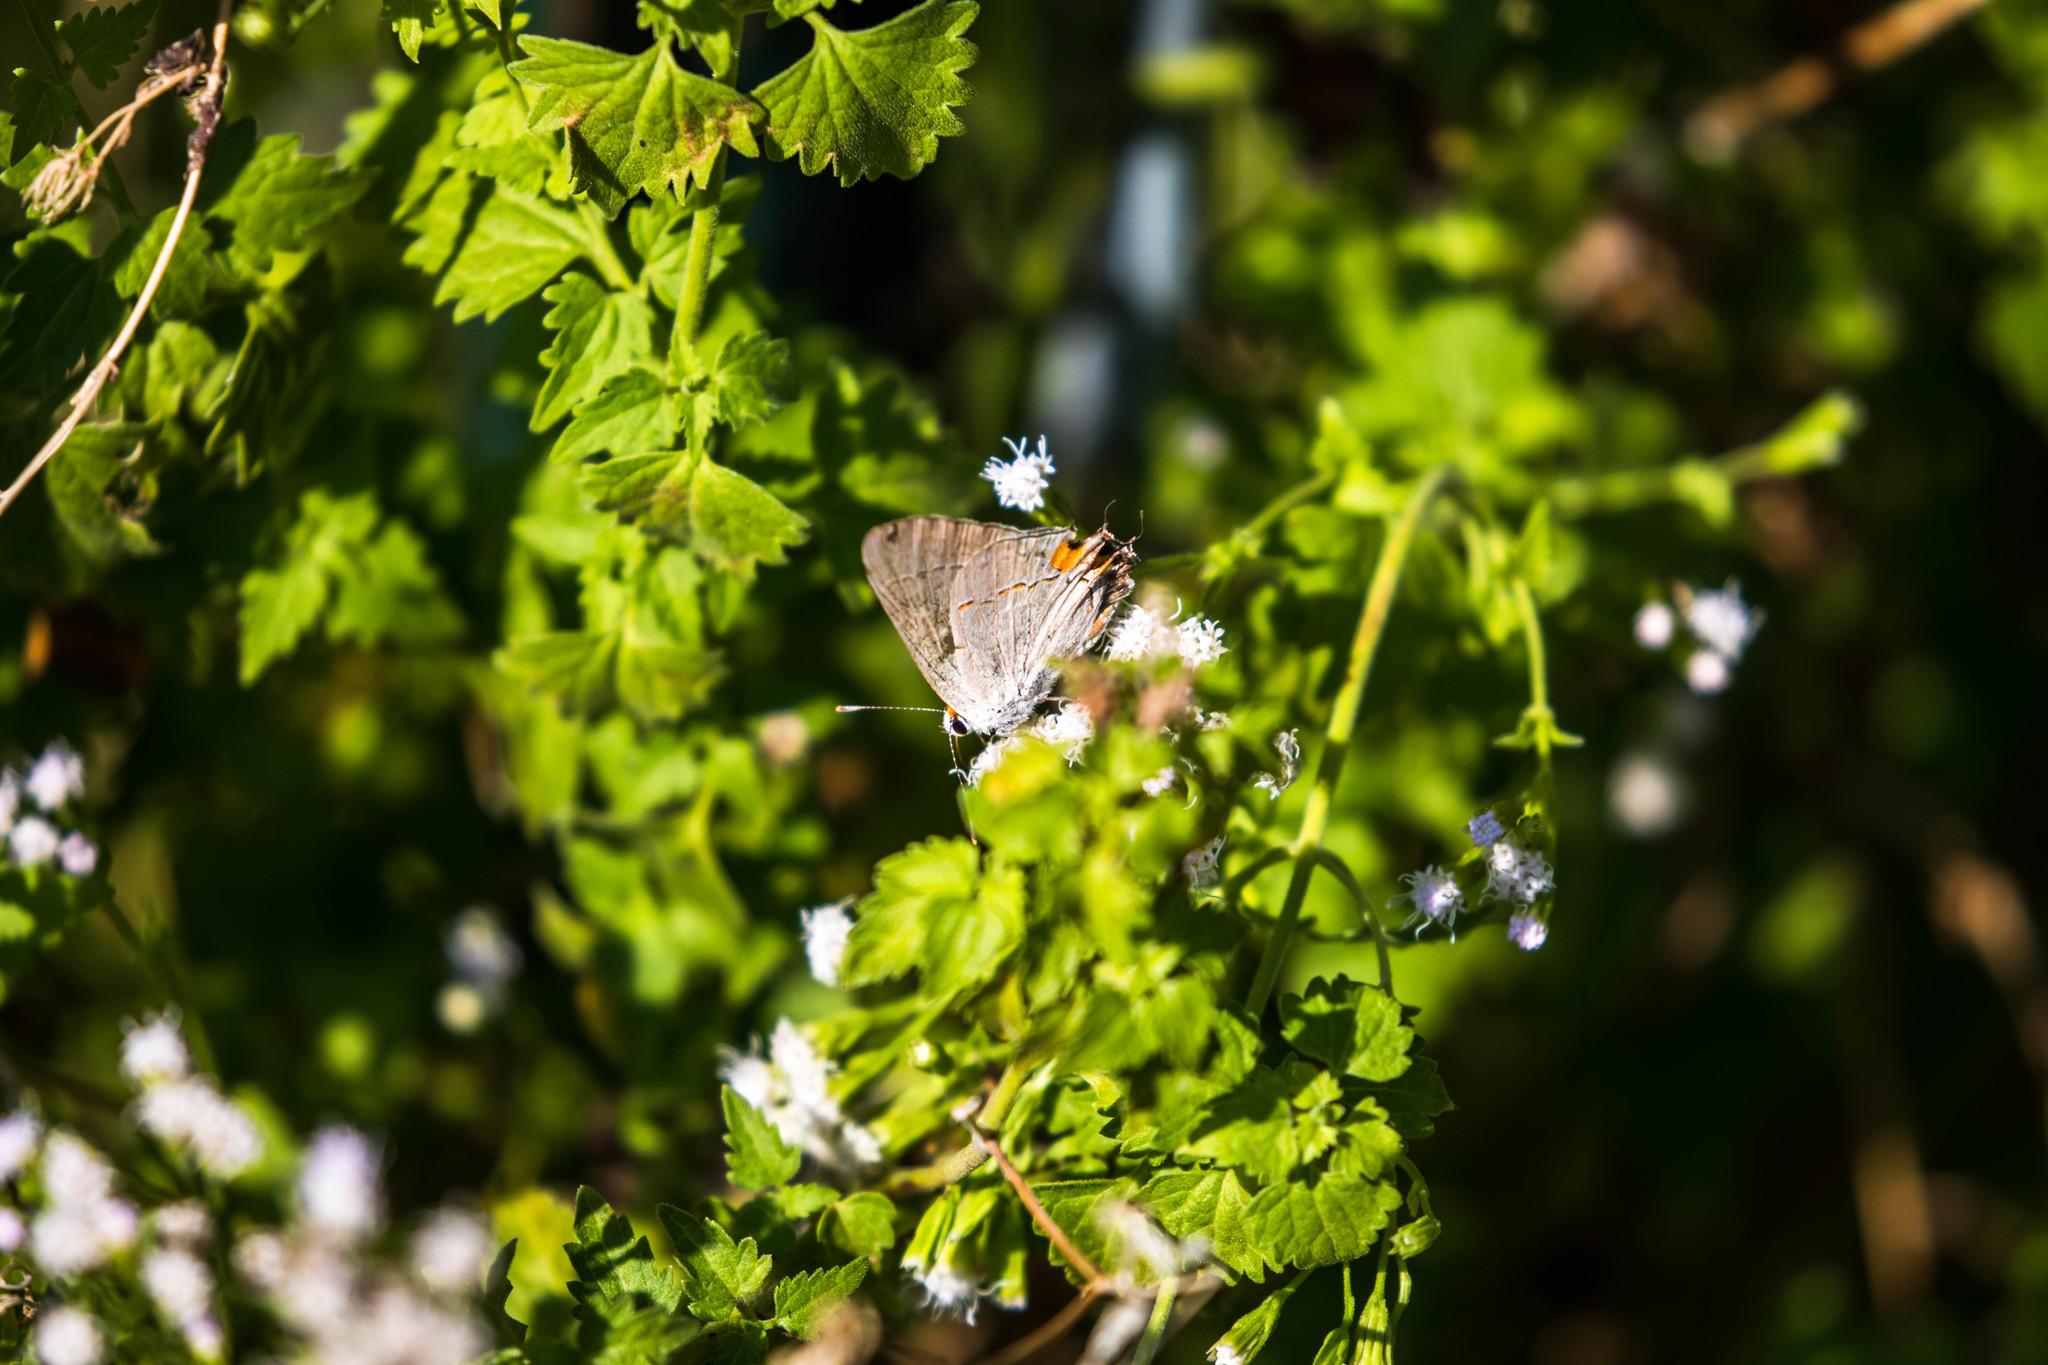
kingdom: Animalia
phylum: Arthropoda
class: Insecta
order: Lepidoptera
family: Lycaenidae
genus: Strymon
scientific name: Strymon melinus
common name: Gray hairstreak
